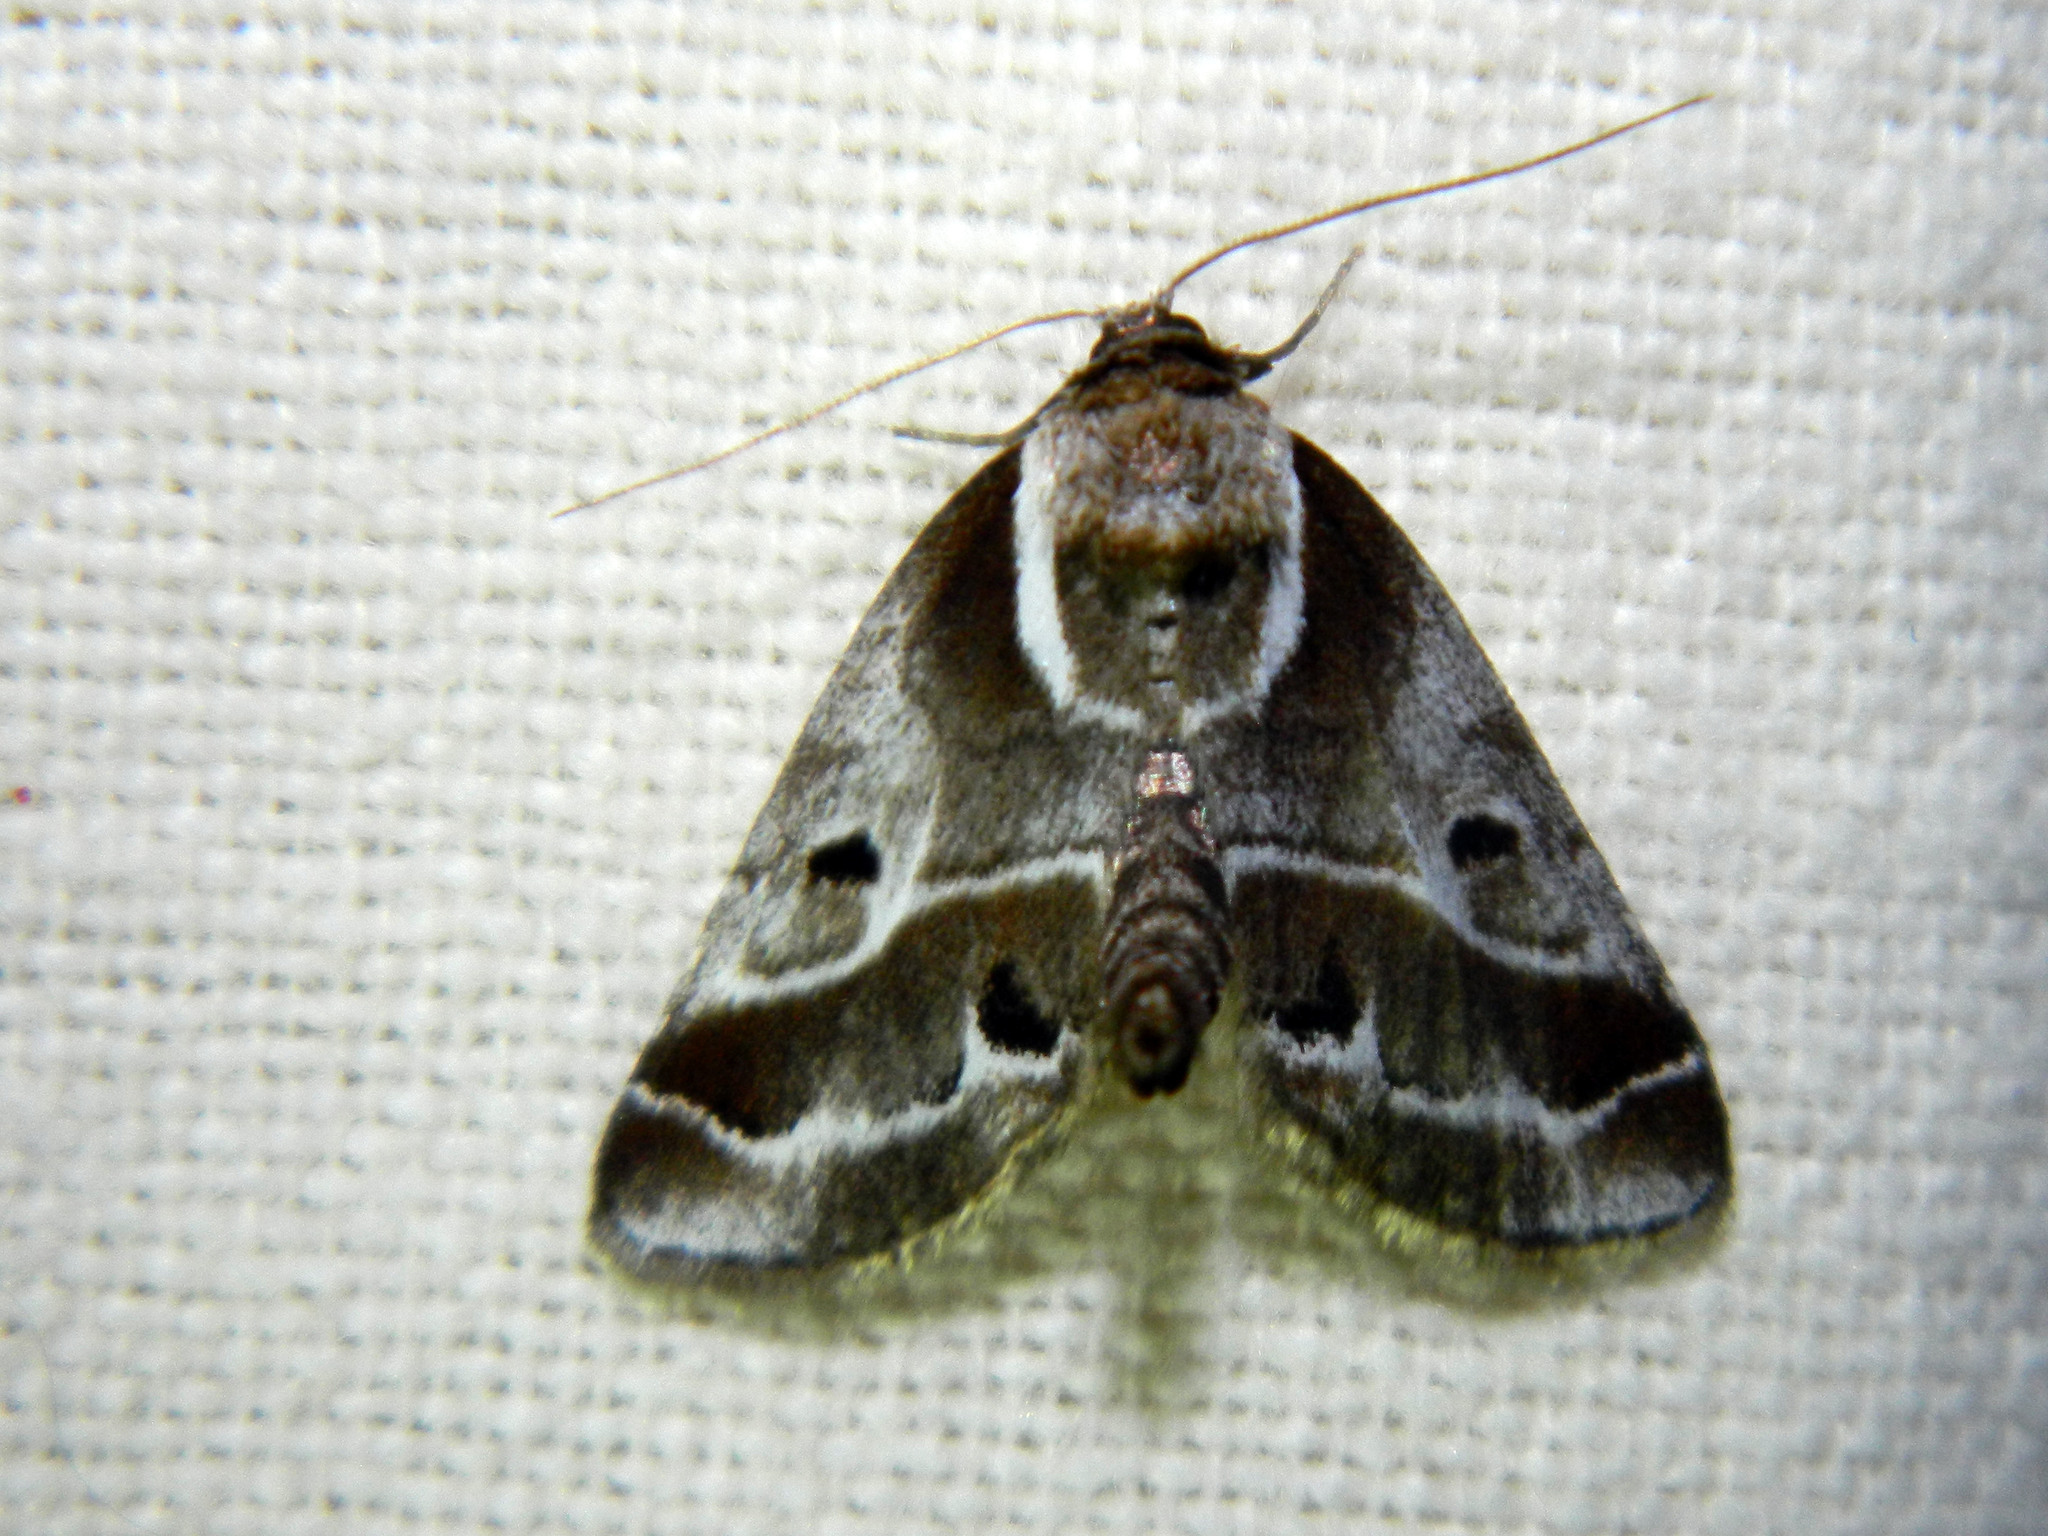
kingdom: Animalia
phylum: Arthropoda
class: Insecta
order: Lepidoptera
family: Nolidae
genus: Baileya
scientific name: Baileya doubledayi
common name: Doubleday's baileya moth
